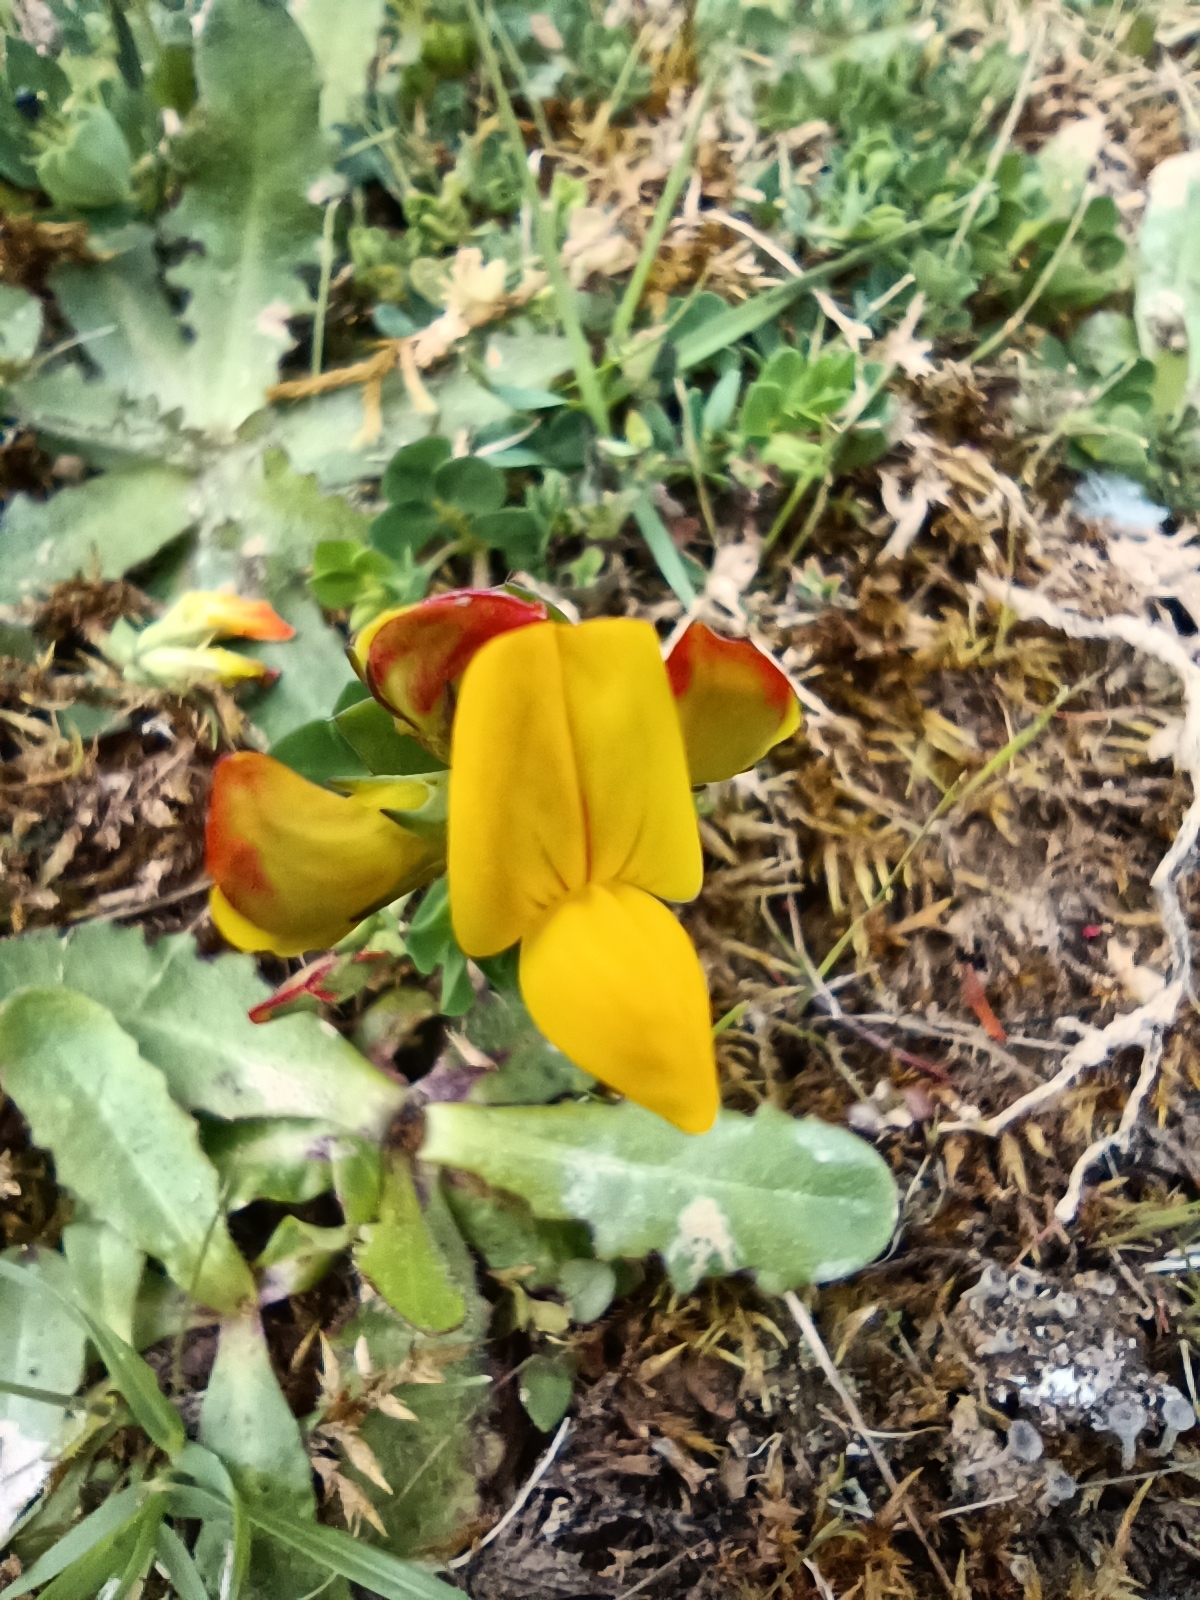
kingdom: Plantae
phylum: Tracheophyta
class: Magnoliopsida
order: Fabales
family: Fabaceae
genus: Lotus
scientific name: Lotus corniculatus
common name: Common bird's-foot-trefoil
